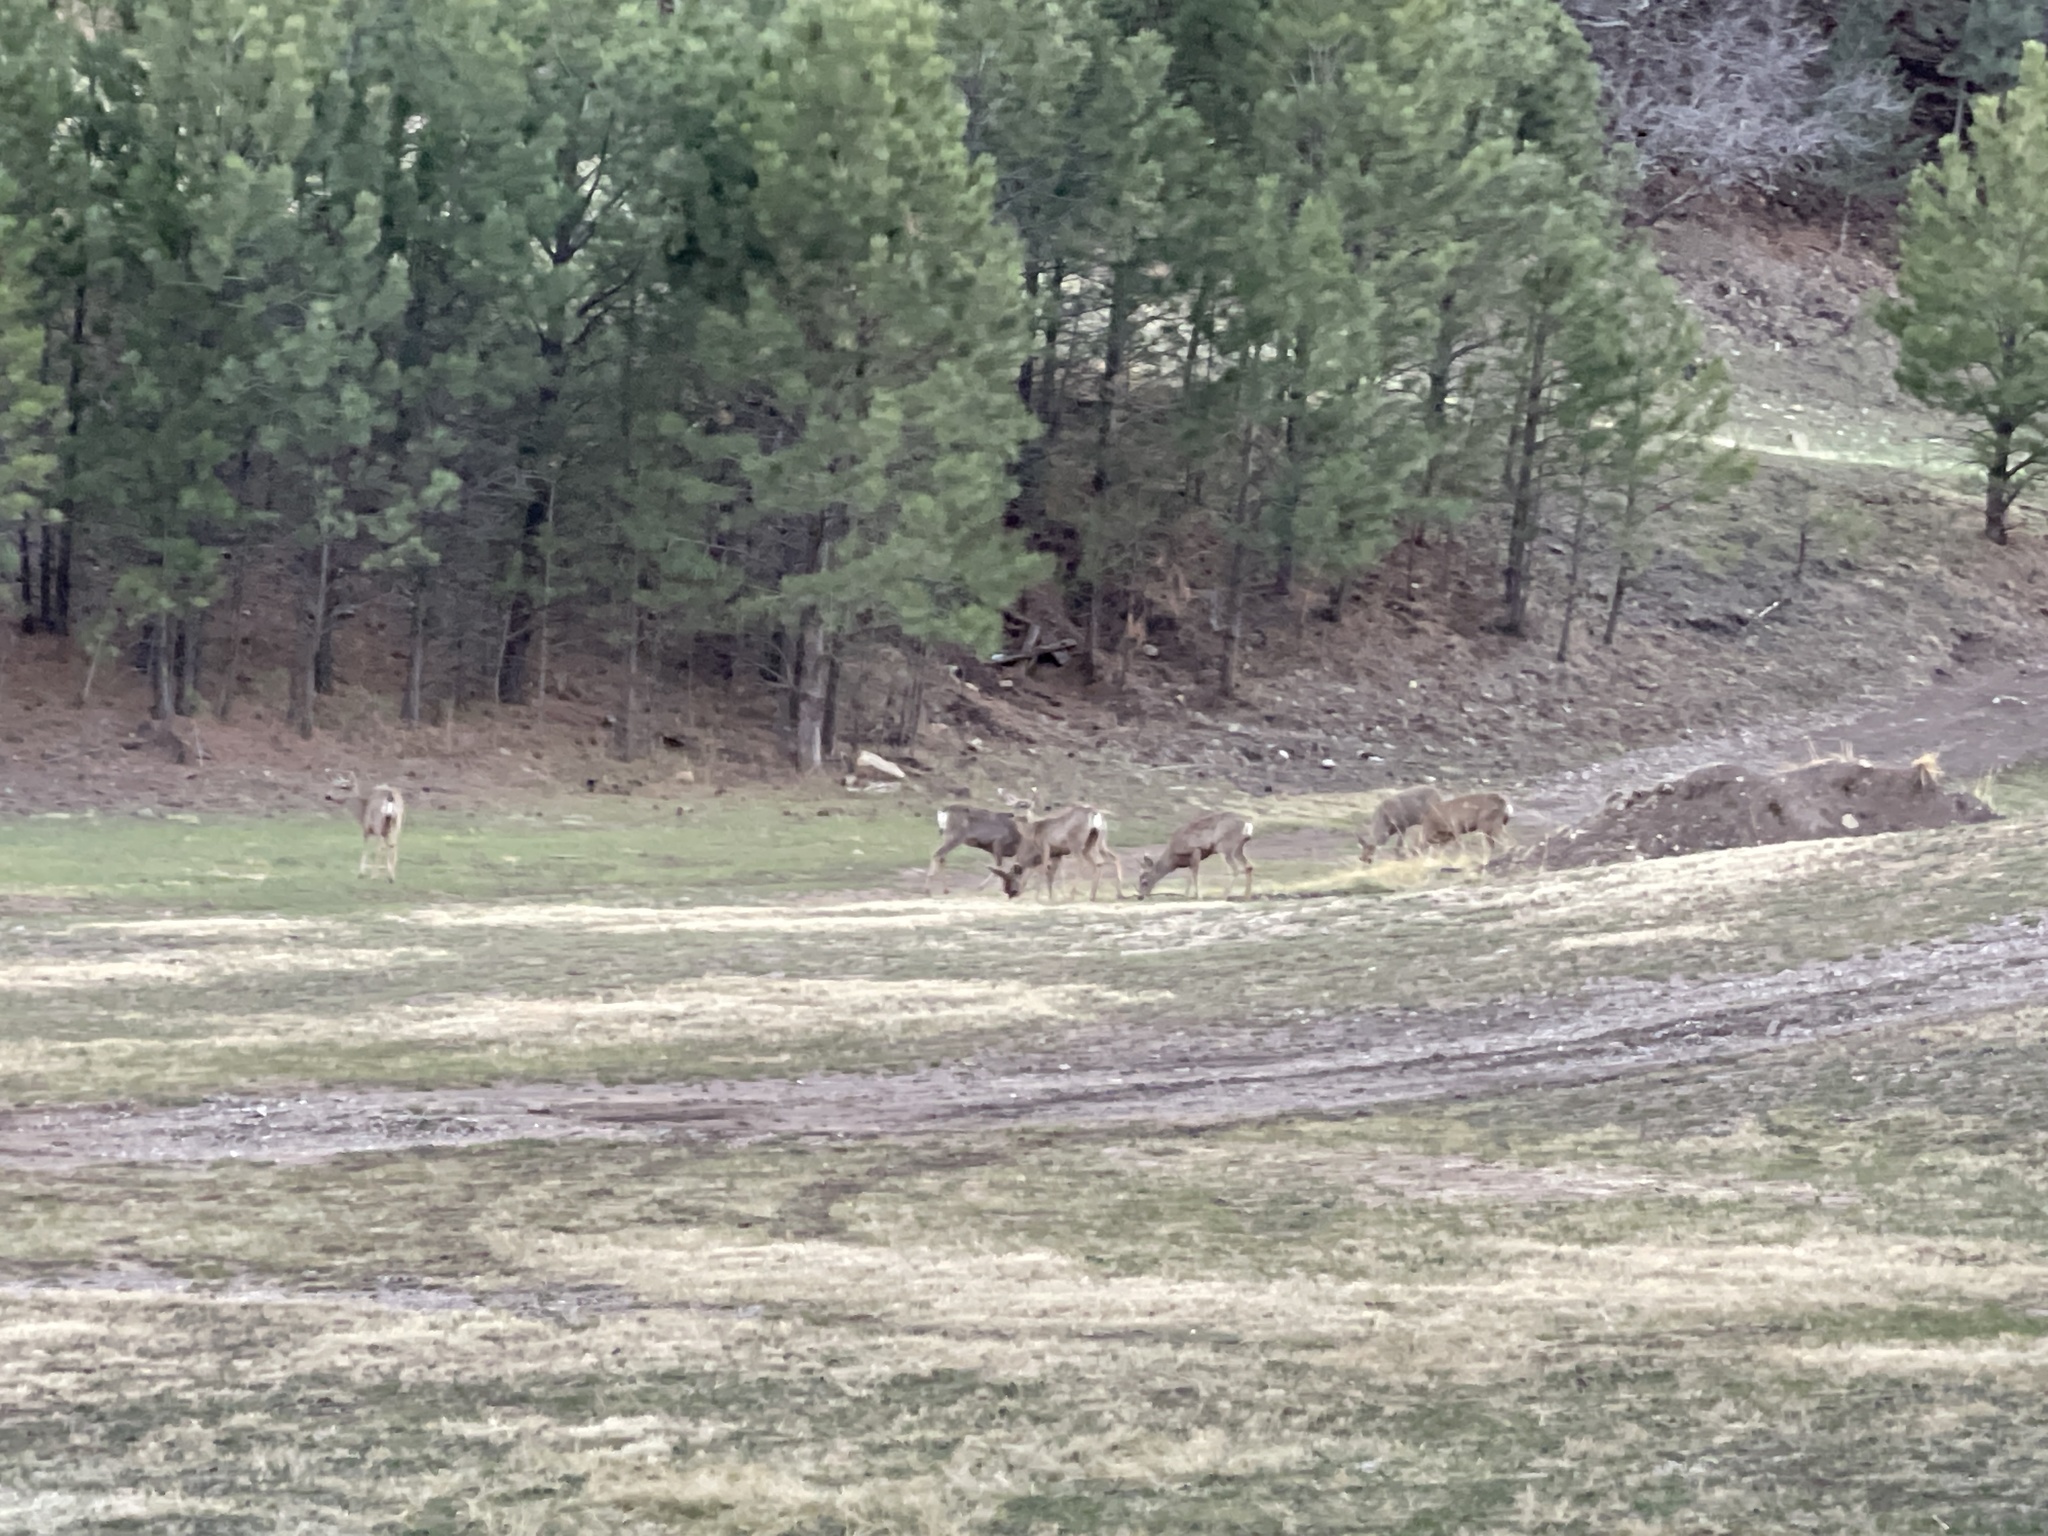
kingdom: Animalia
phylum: Chordata
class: Mammalia
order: Artiodactyla
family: Cervidae
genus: Odocoileus
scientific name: Odocoileus hemionus
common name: Mule deer
